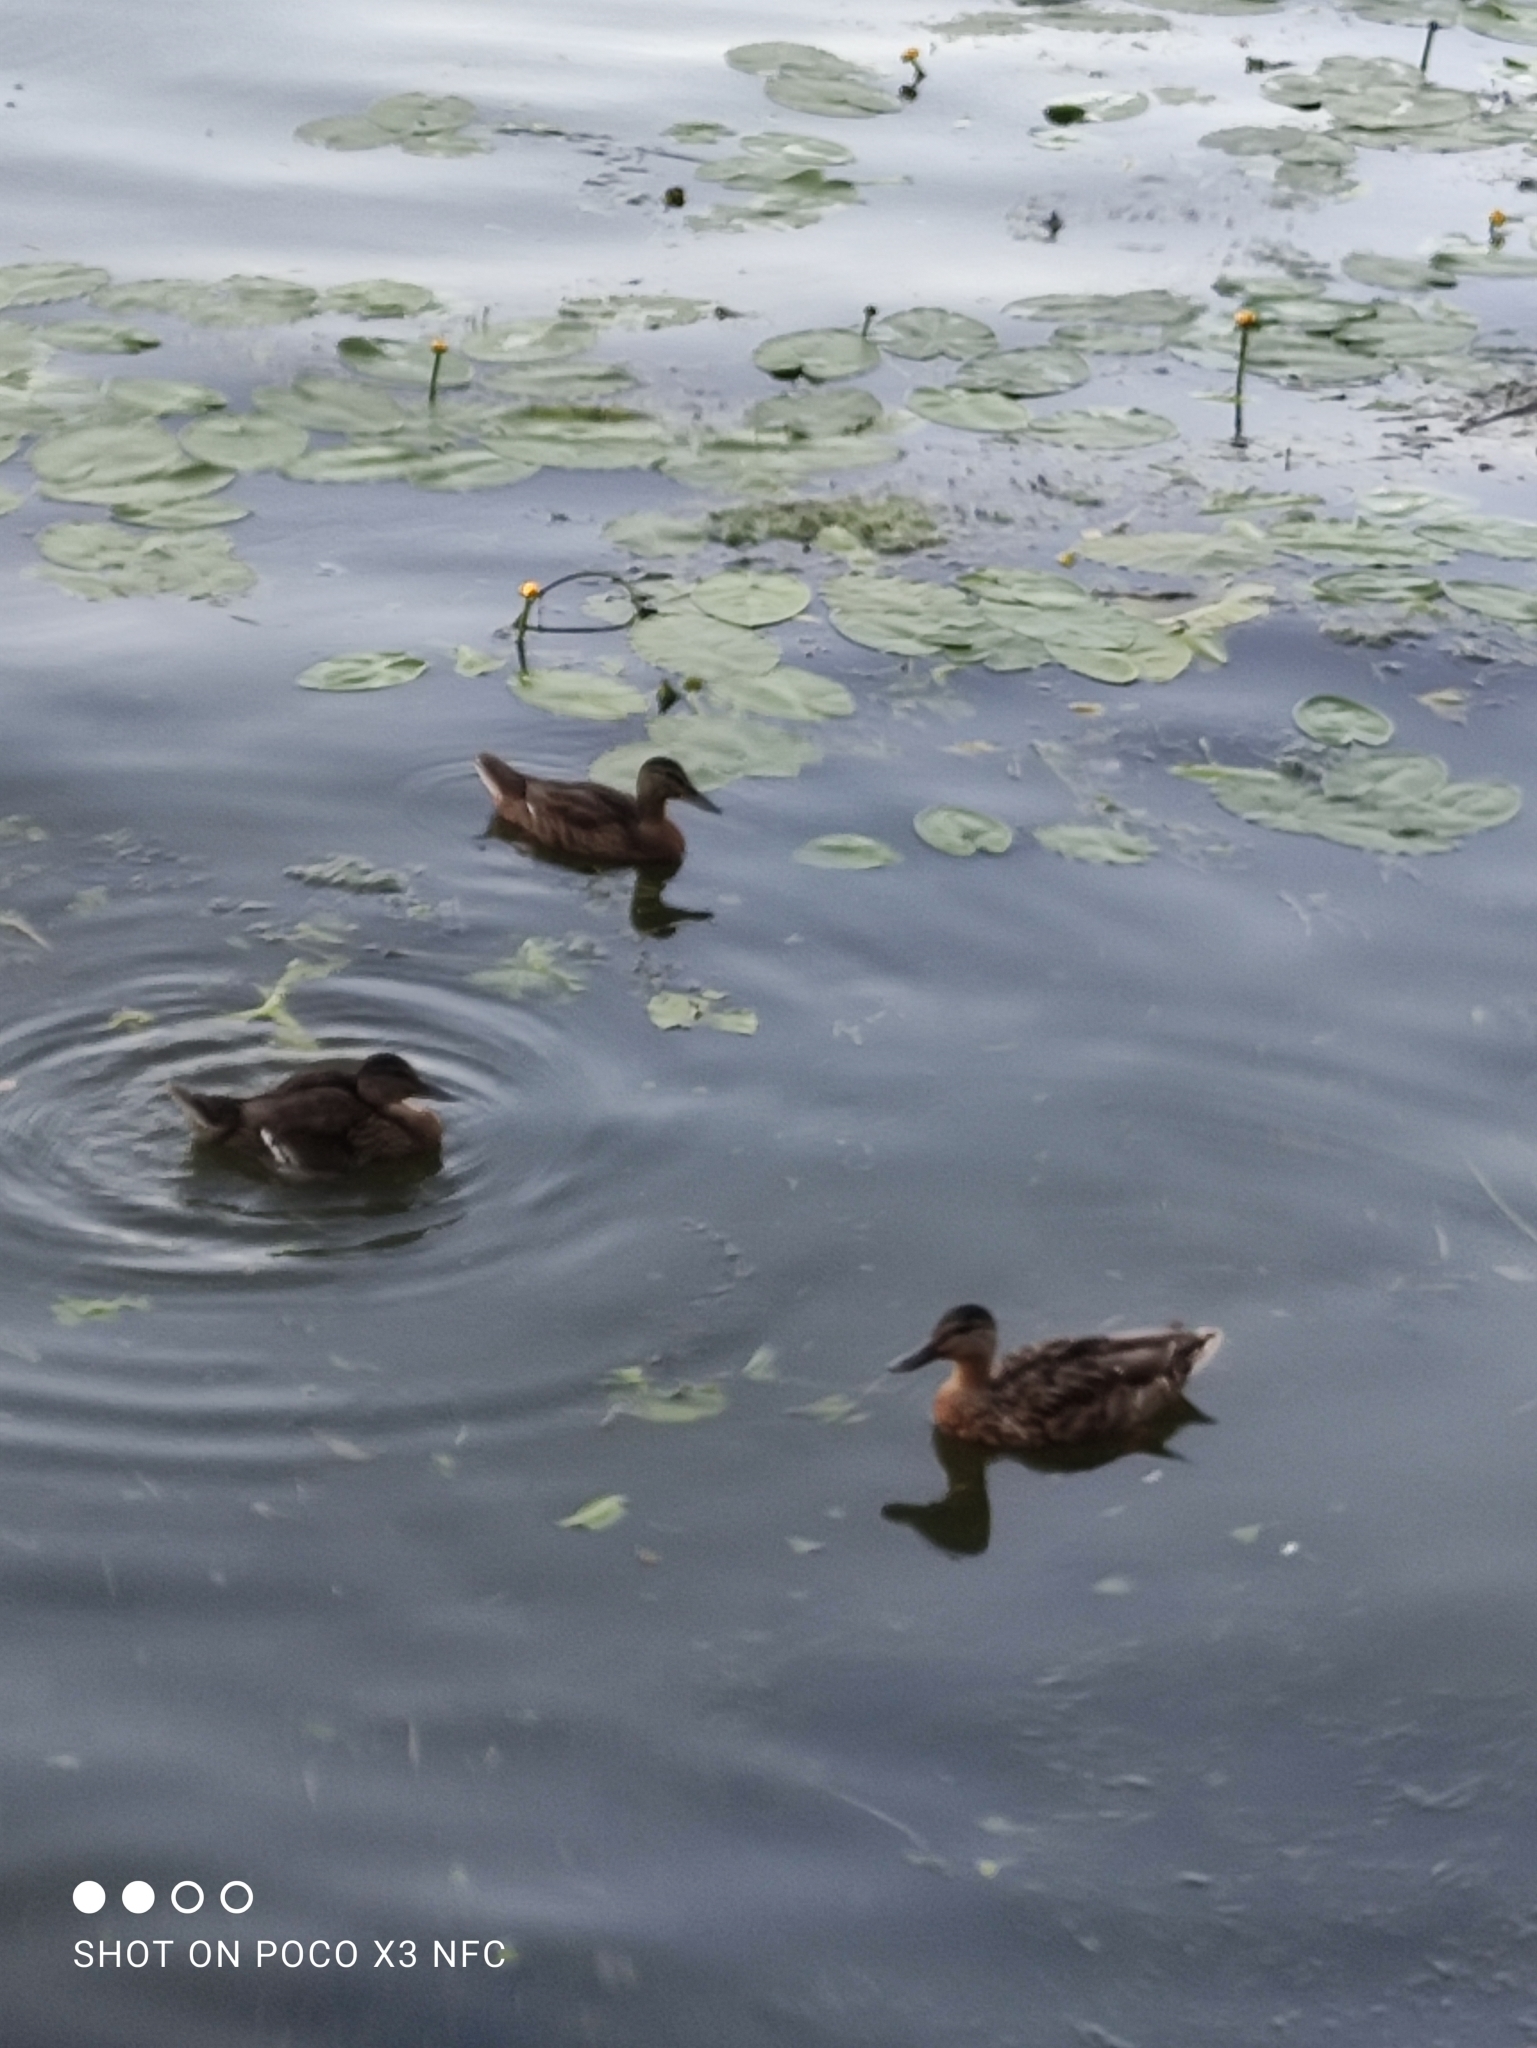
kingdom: Animalia
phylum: Chordata
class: Aves
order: Anseriformes
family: Anatidae
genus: Anas
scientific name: Anas platyrhynchos
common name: Mallard
